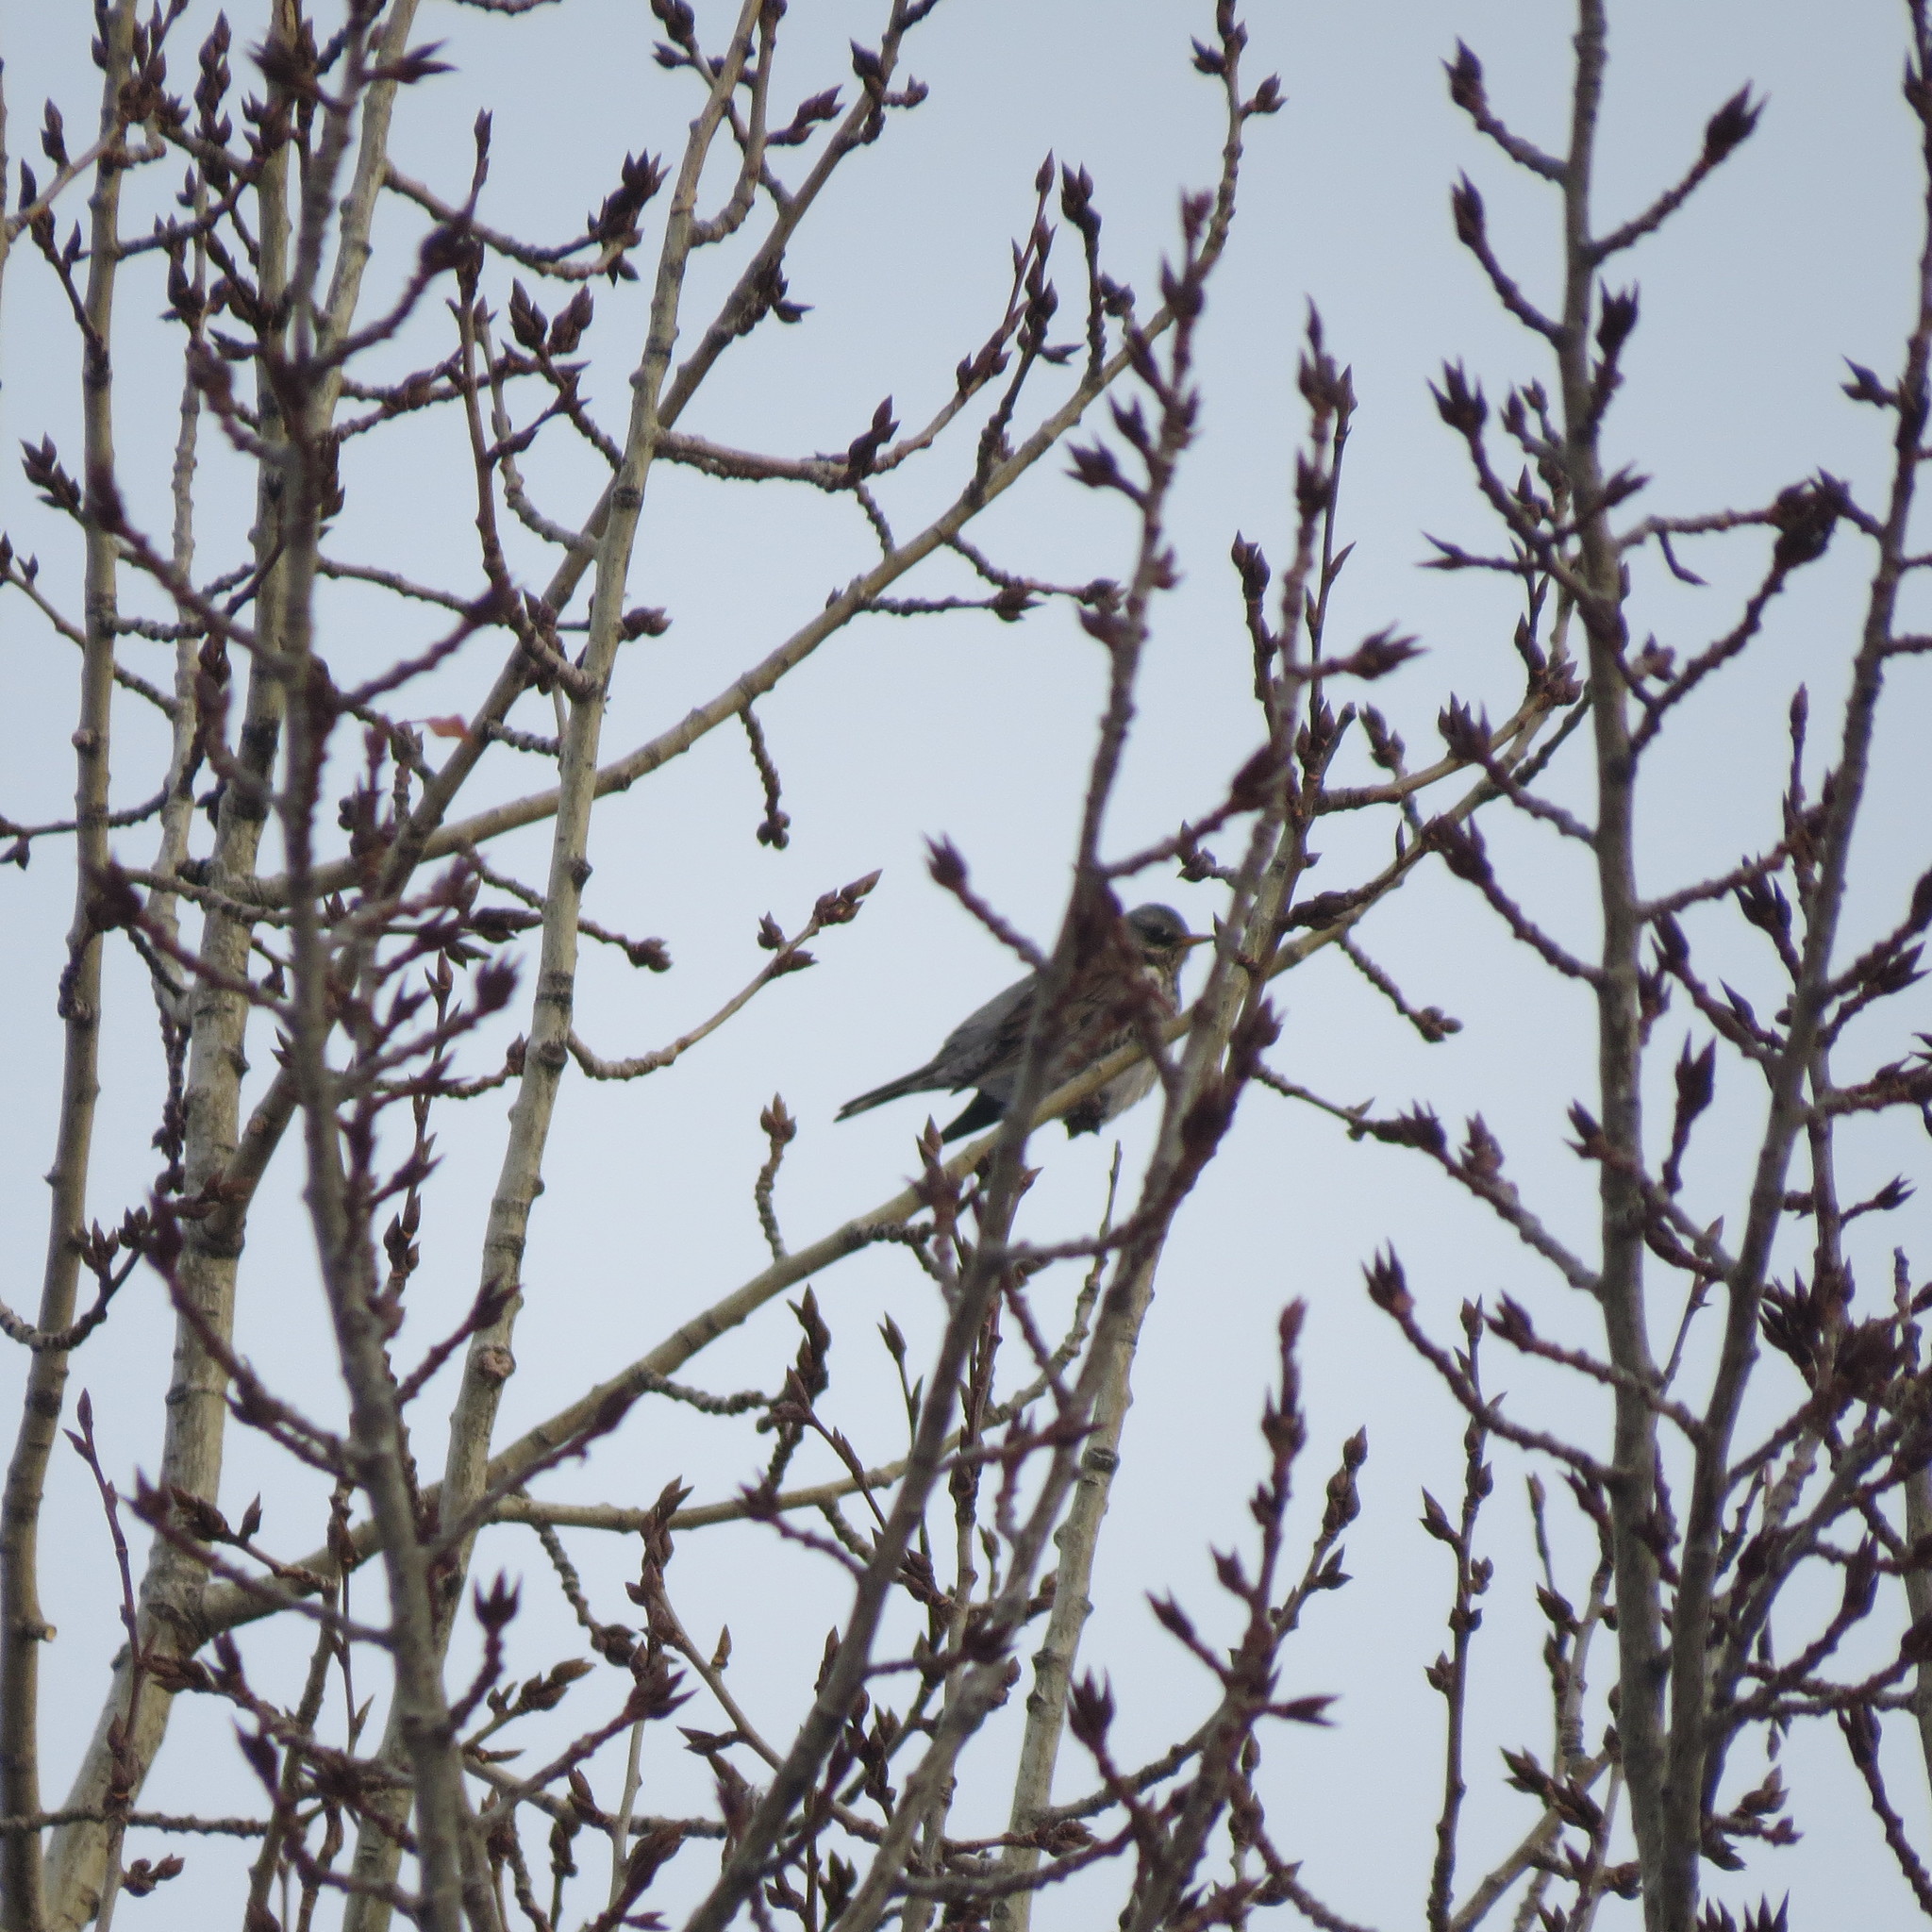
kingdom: Animalia
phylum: Chordata
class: Aves
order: Passeriformes
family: Turdidae
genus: Turdus
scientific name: Turdus pilaris
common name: Fieldfare
